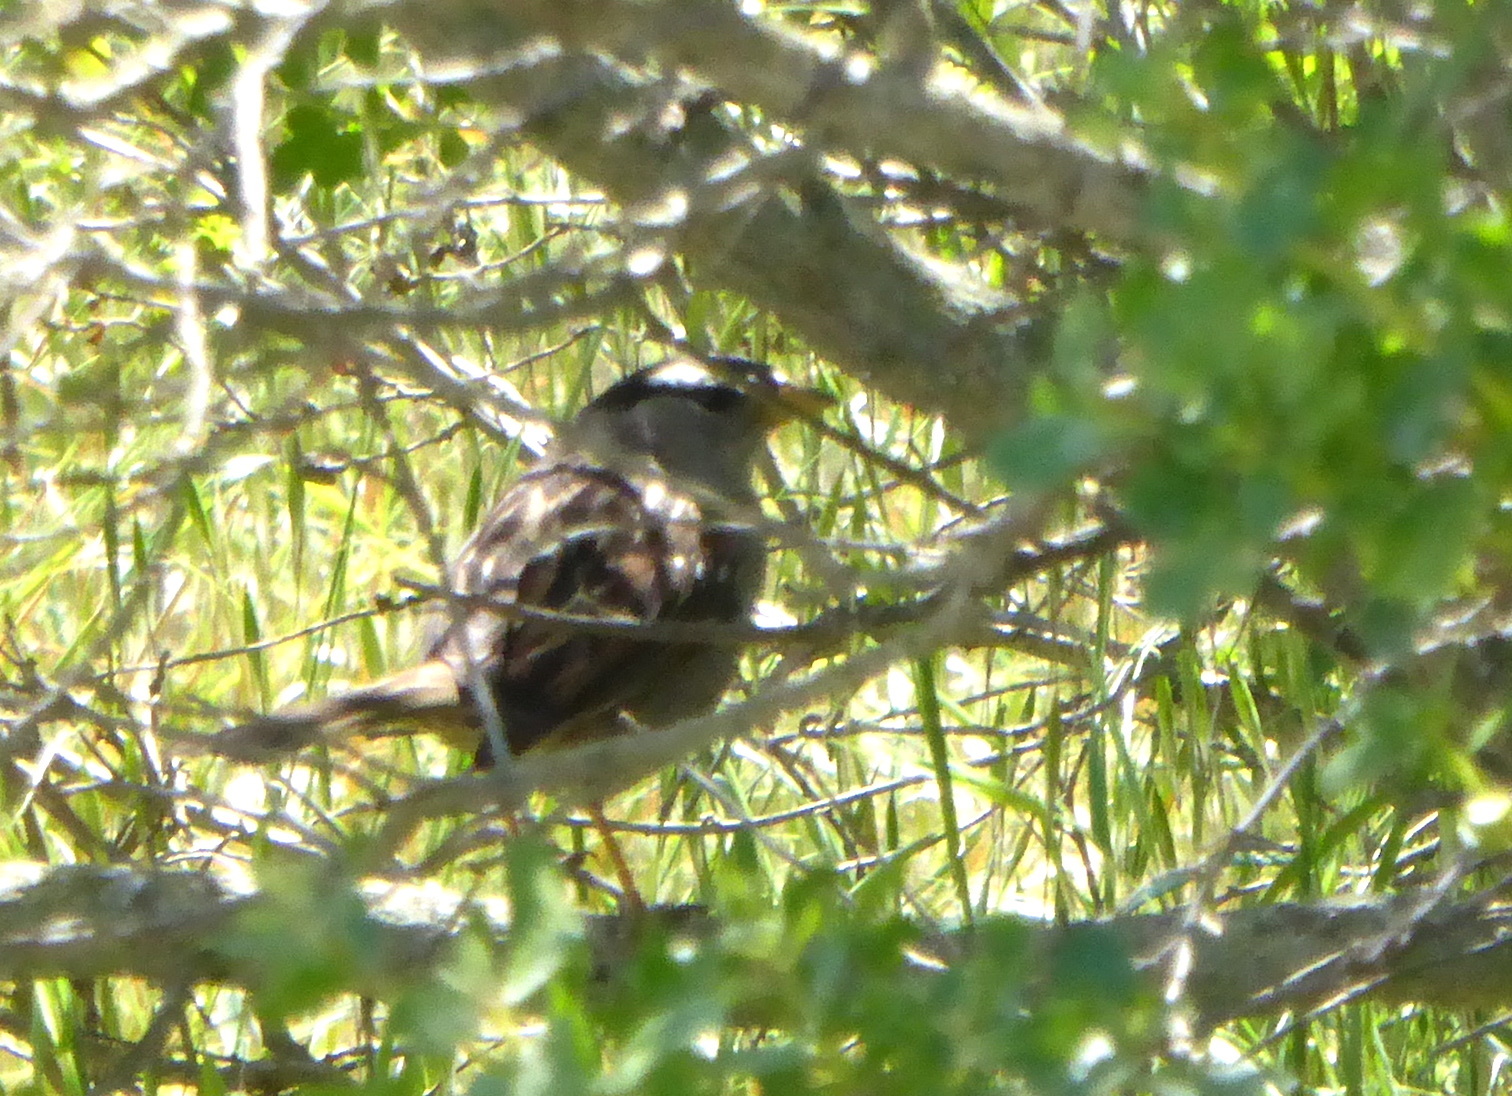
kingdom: Animalia
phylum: Chordata
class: Aves
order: Passeriformes
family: Passerellidae
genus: Zonotrichia
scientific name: Zonotrichia leucophrys
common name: White-crowned sparrow
